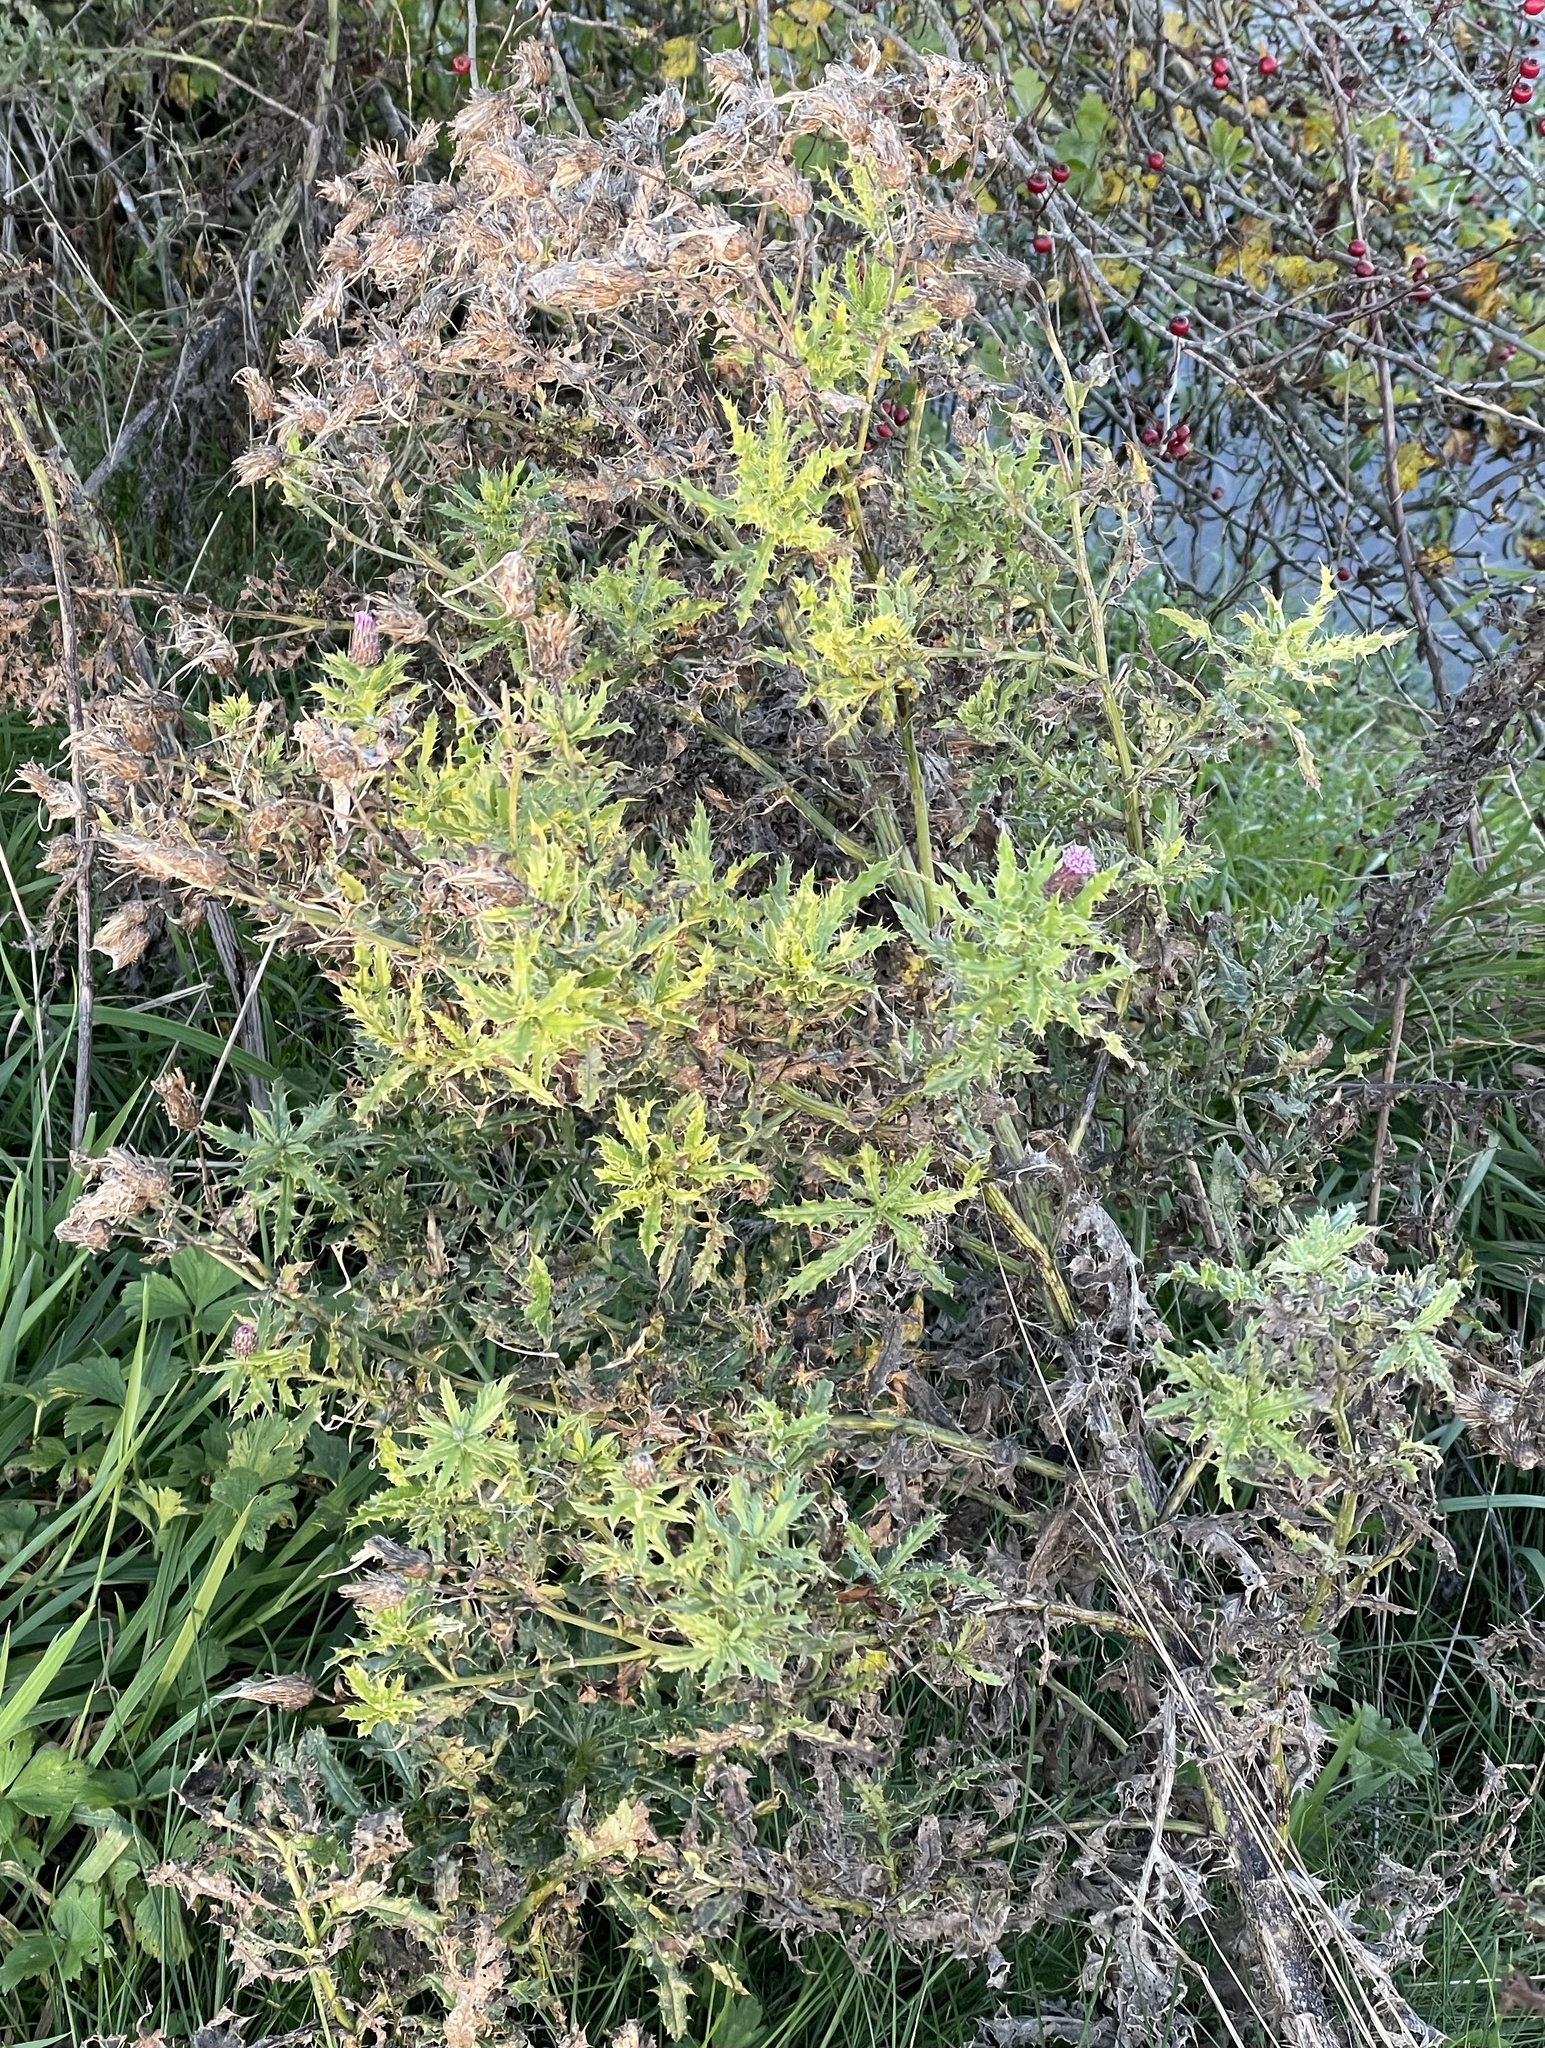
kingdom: Plantae
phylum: Tracheophyta
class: Magnoliopsida
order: Asterales
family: Asteraceae
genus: Cirsium
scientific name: Cirsium arvense
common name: Creeping thistle
